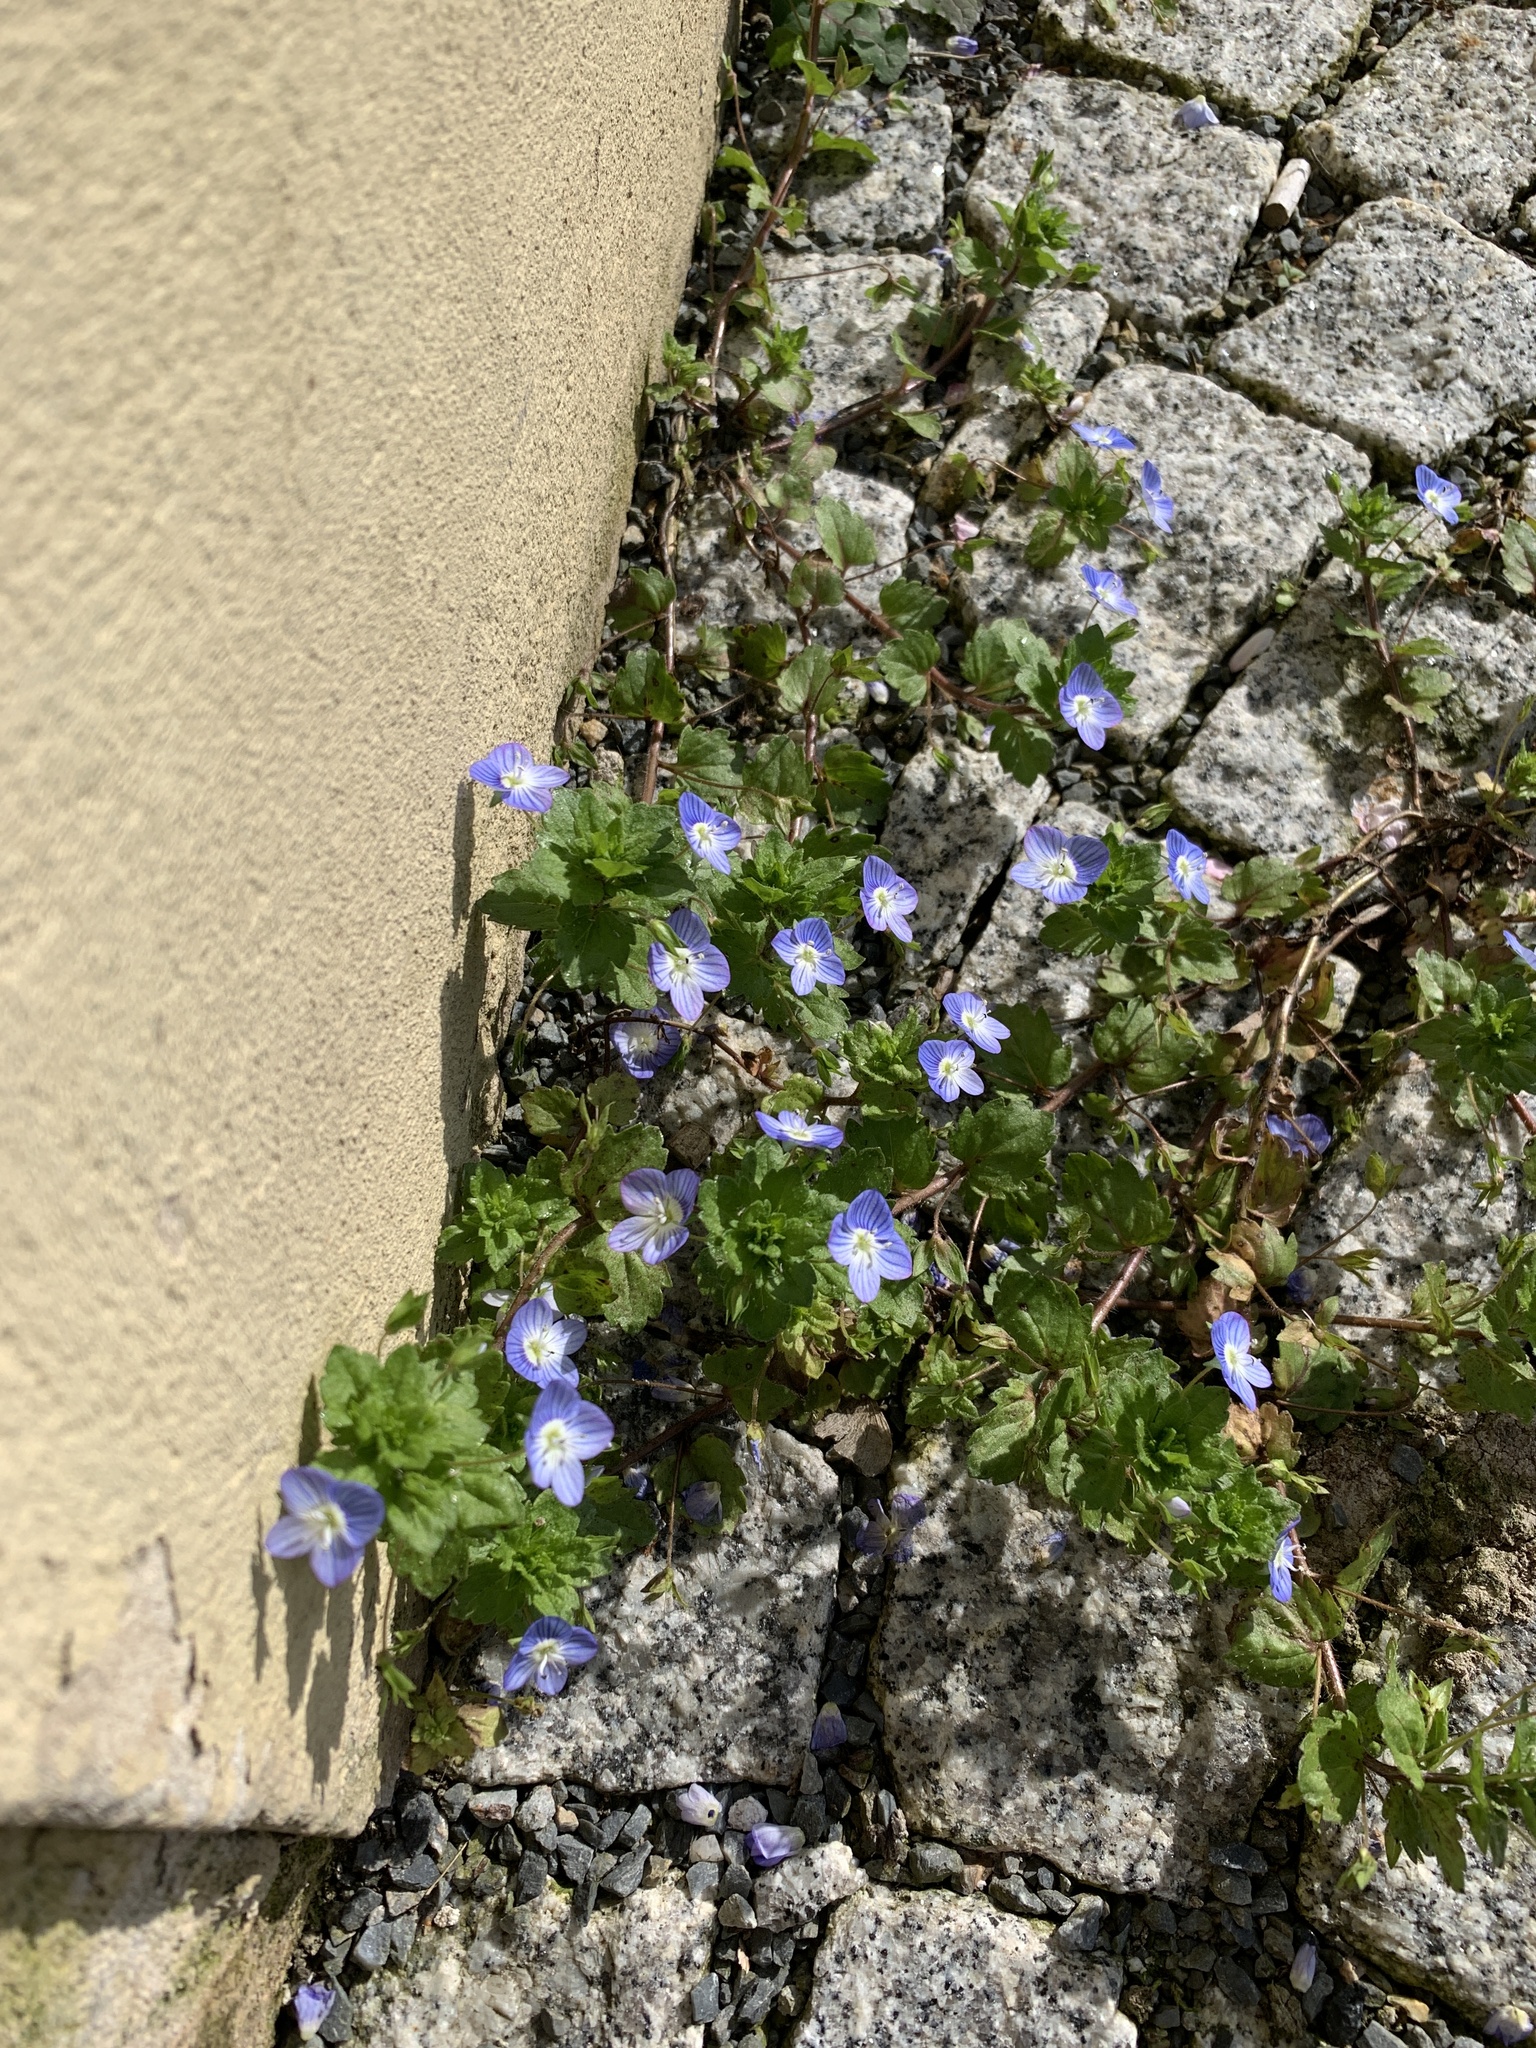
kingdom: Plantae
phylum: Tracheophyta
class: Magnoliopsida
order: Lamiales
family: Plantaginaceae
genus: Veronica
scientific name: Veronica persica
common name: Common field-speedwell
